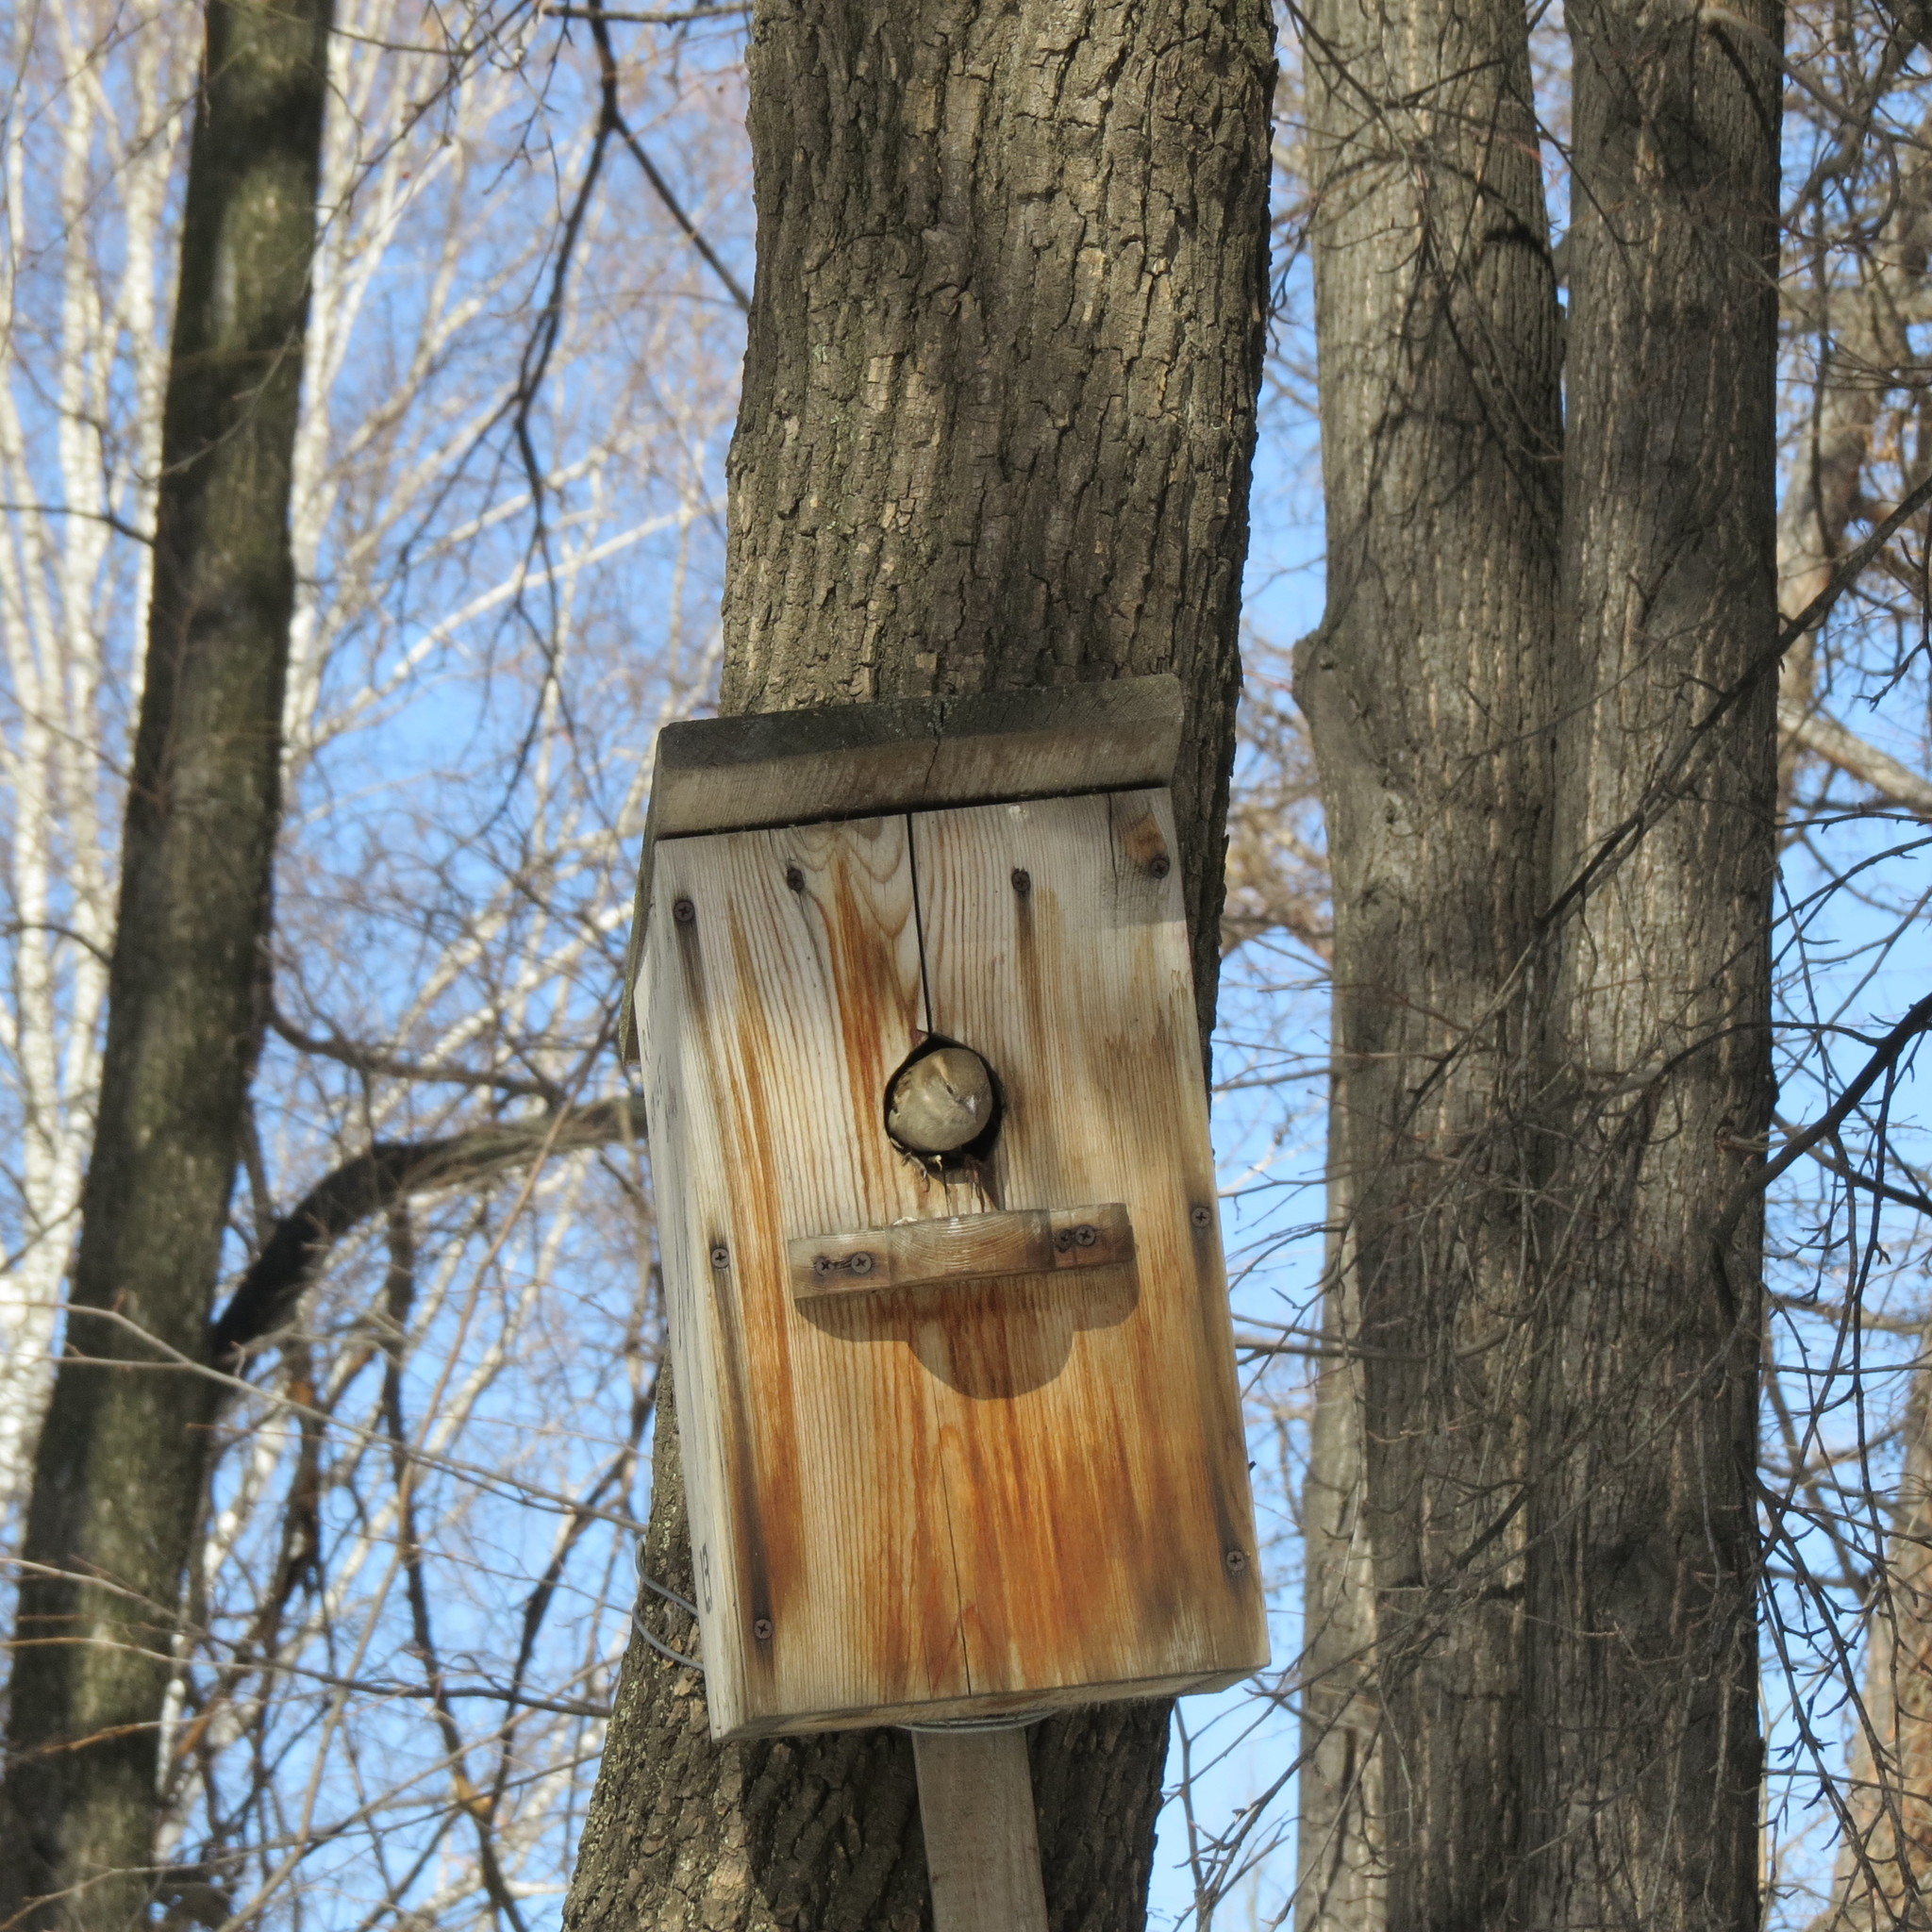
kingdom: Animalia
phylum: Chordata
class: Aves
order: Passeriformes
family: Passeridae
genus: Passer
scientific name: Passer domesticus
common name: House sparrow
